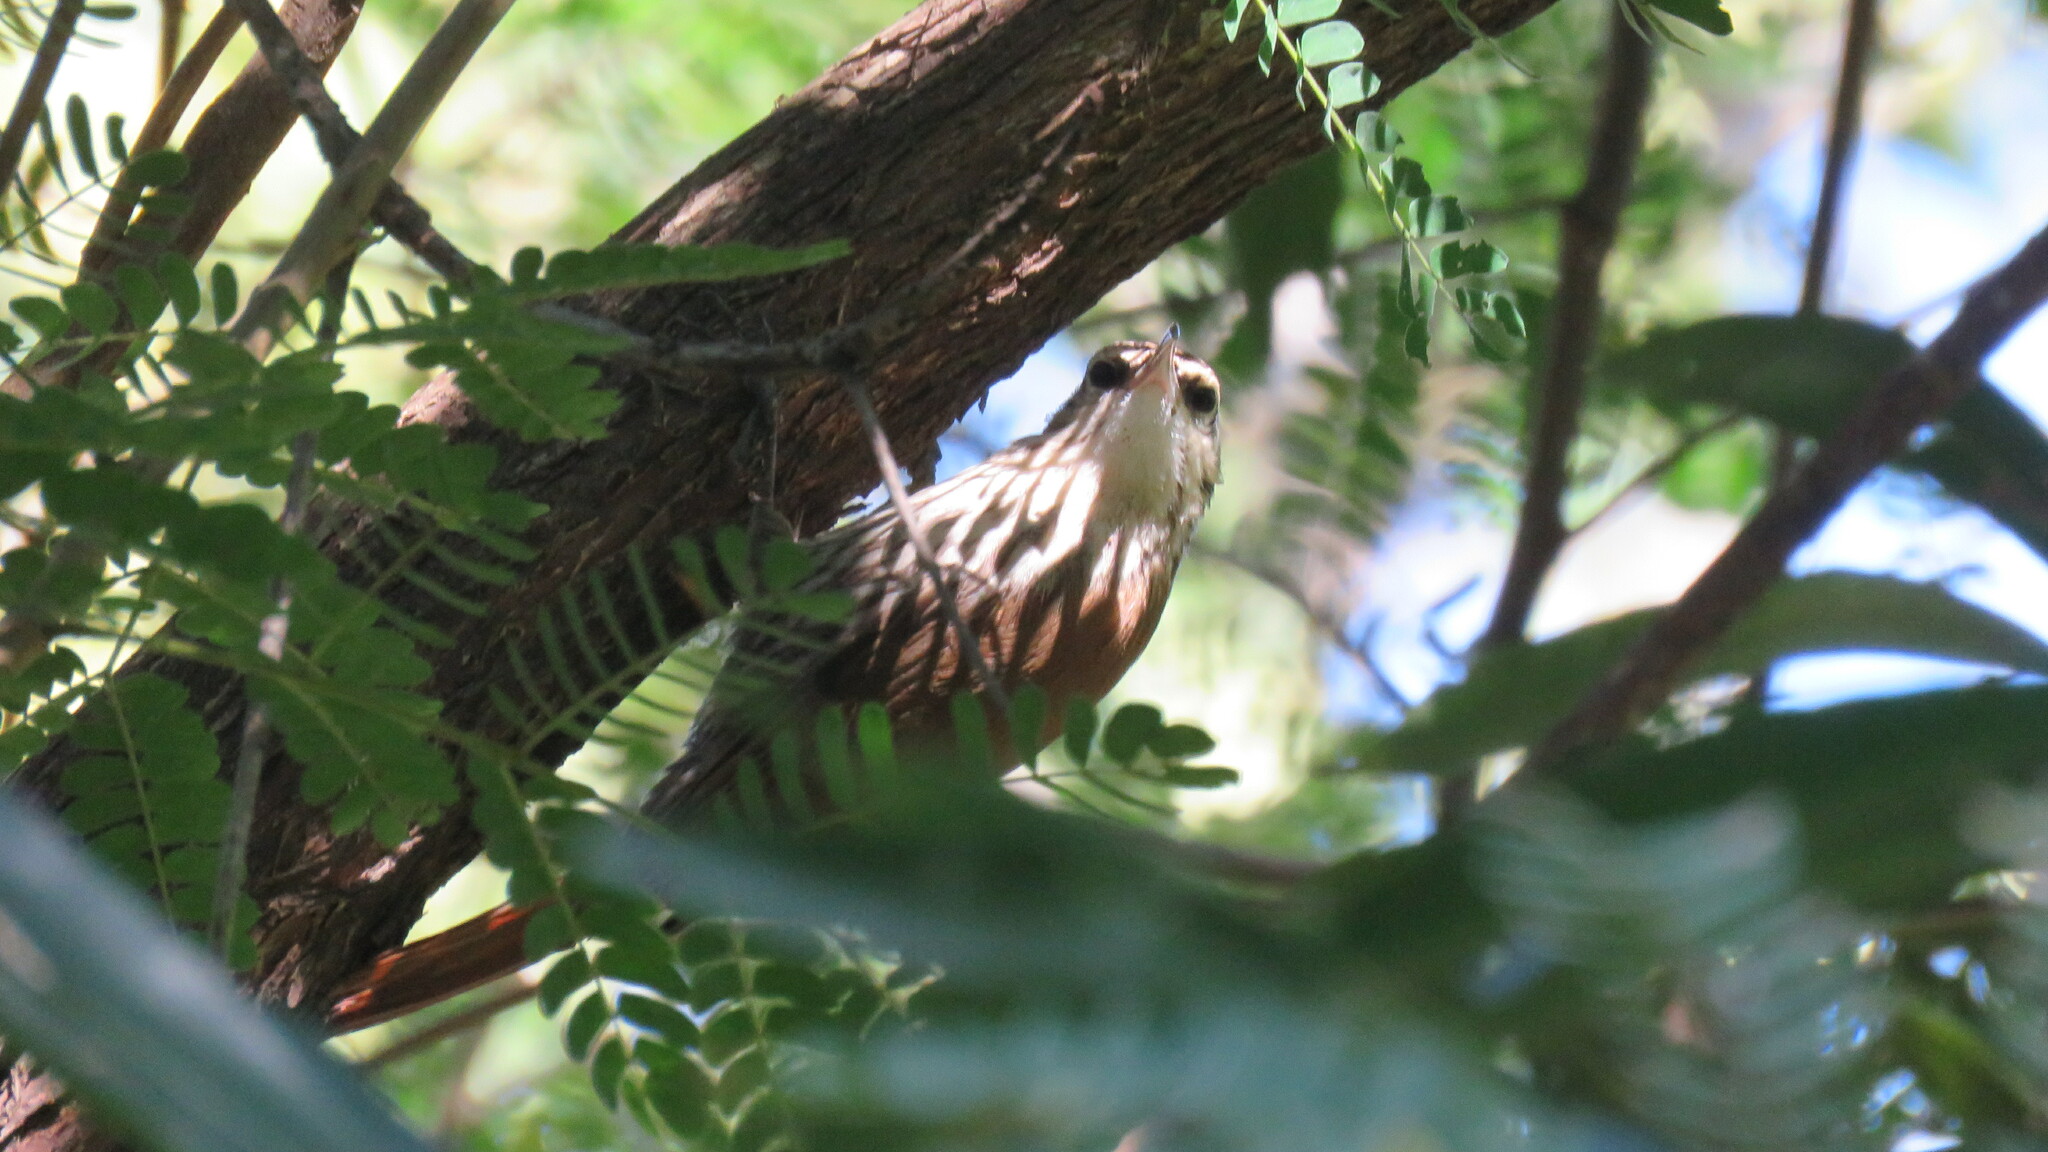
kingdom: Animalia
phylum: Chordata
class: Aves
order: Passeriformes
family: Furnariidae
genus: Lepidocolaptes
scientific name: Lepidocolaptes angustirostris
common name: Narrow-billed woodcreeper
